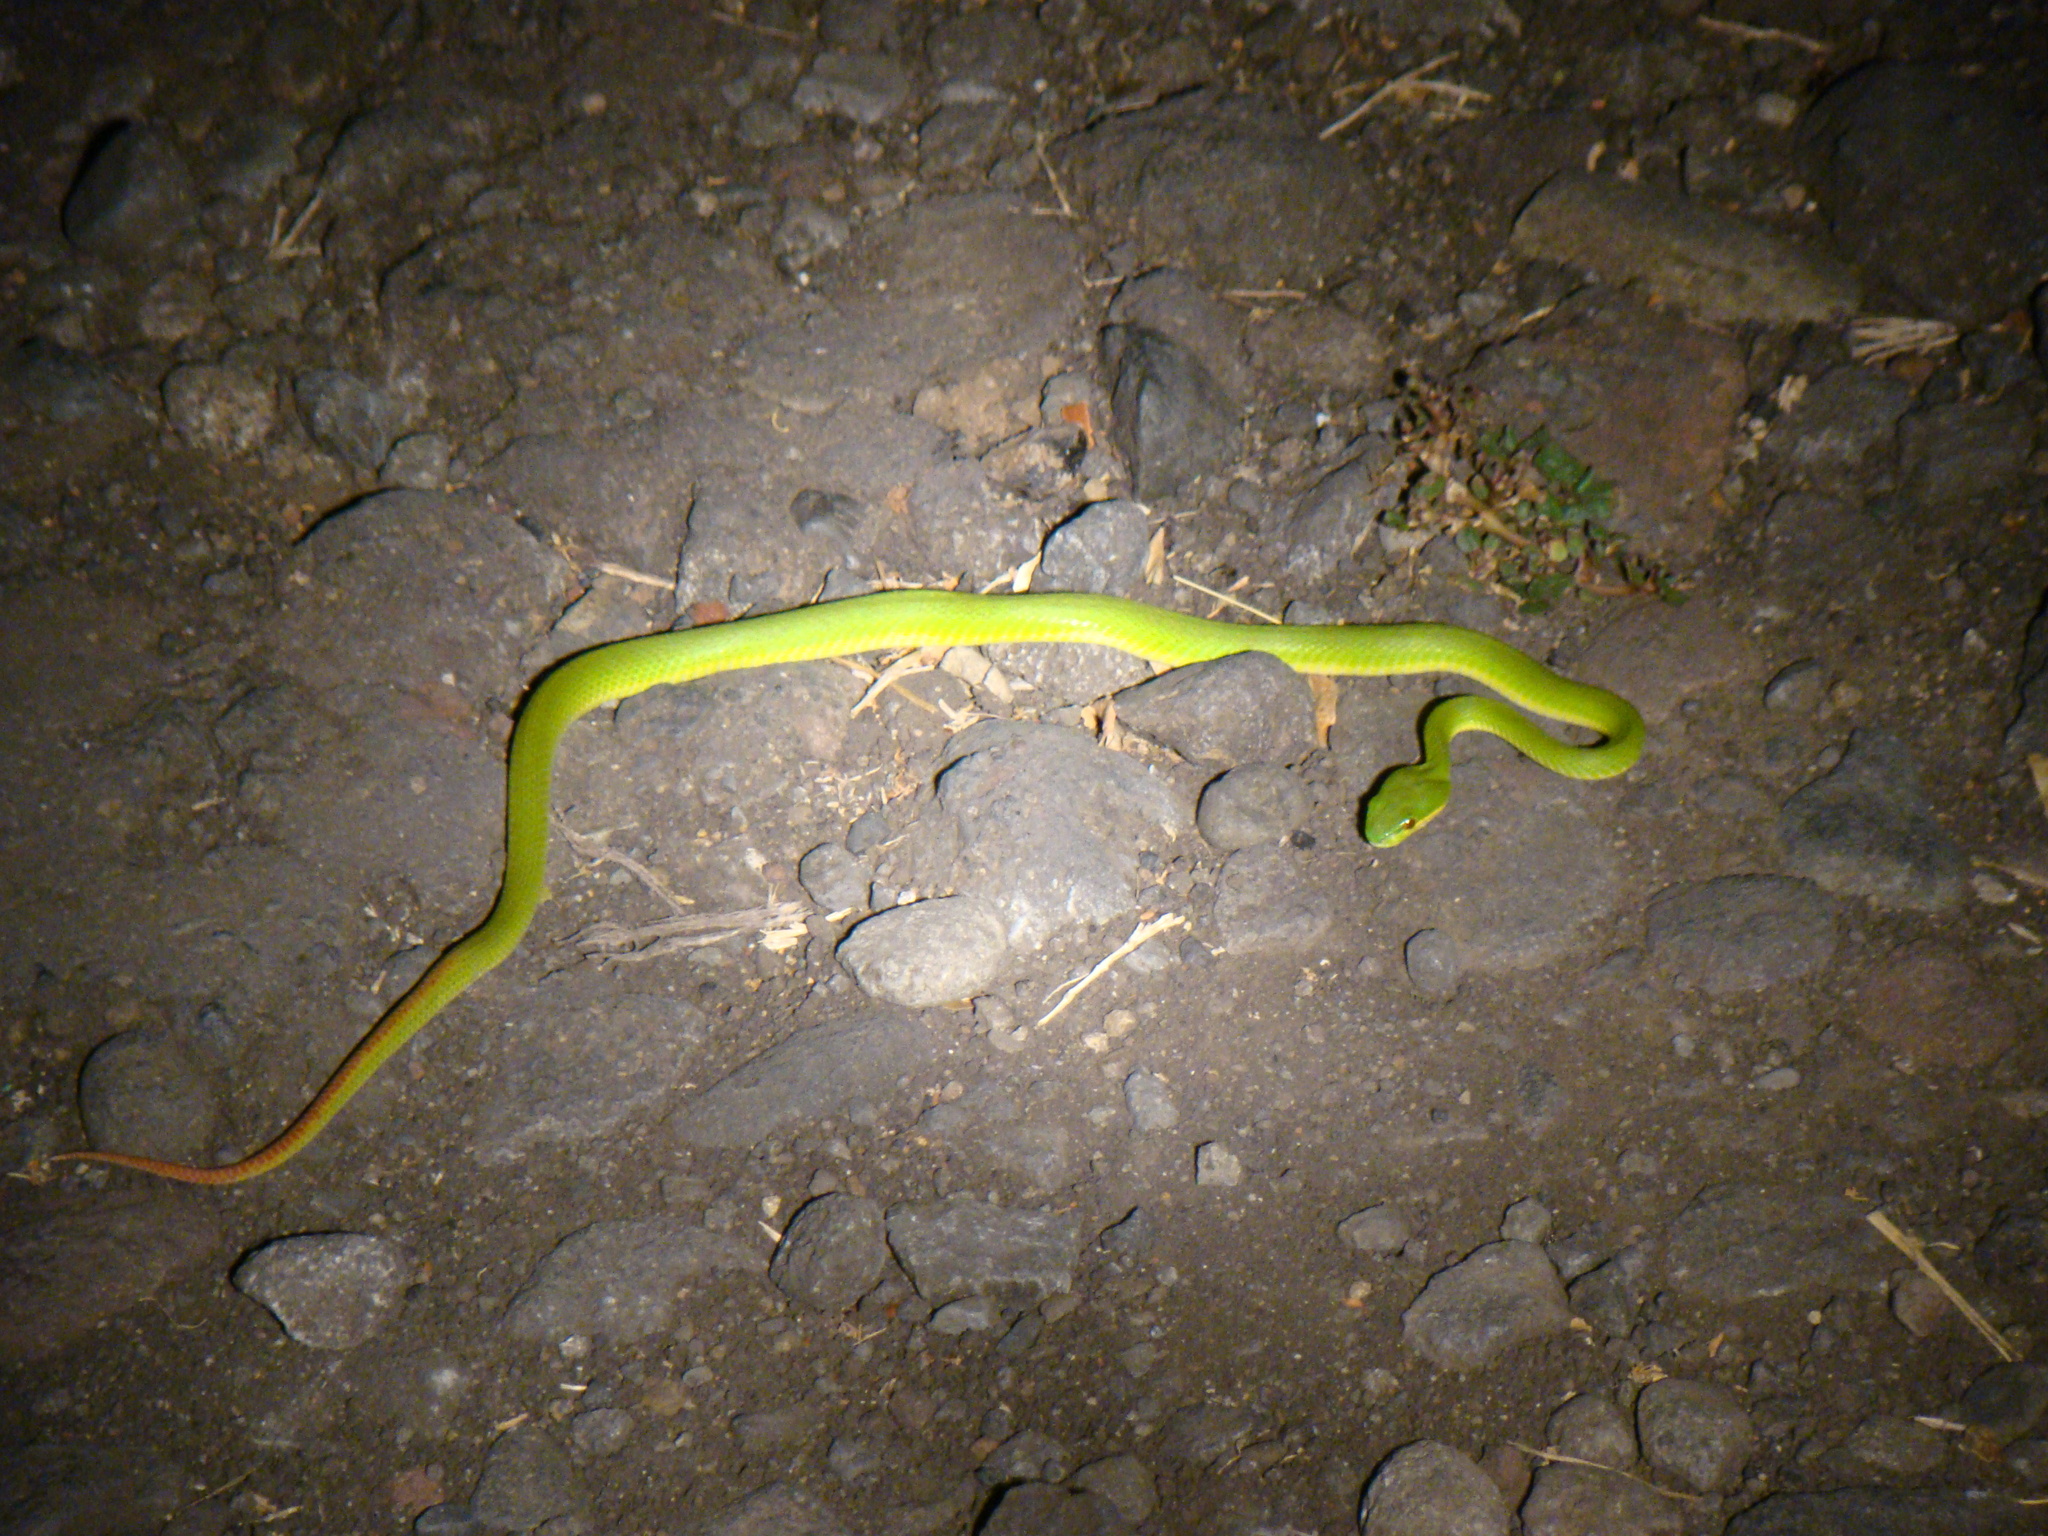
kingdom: Animalia
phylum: Chordata
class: Squamata
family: Viperidae
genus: Trimeresurus
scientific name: Trimeresurus insularis
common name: White-lipped island pitviper
